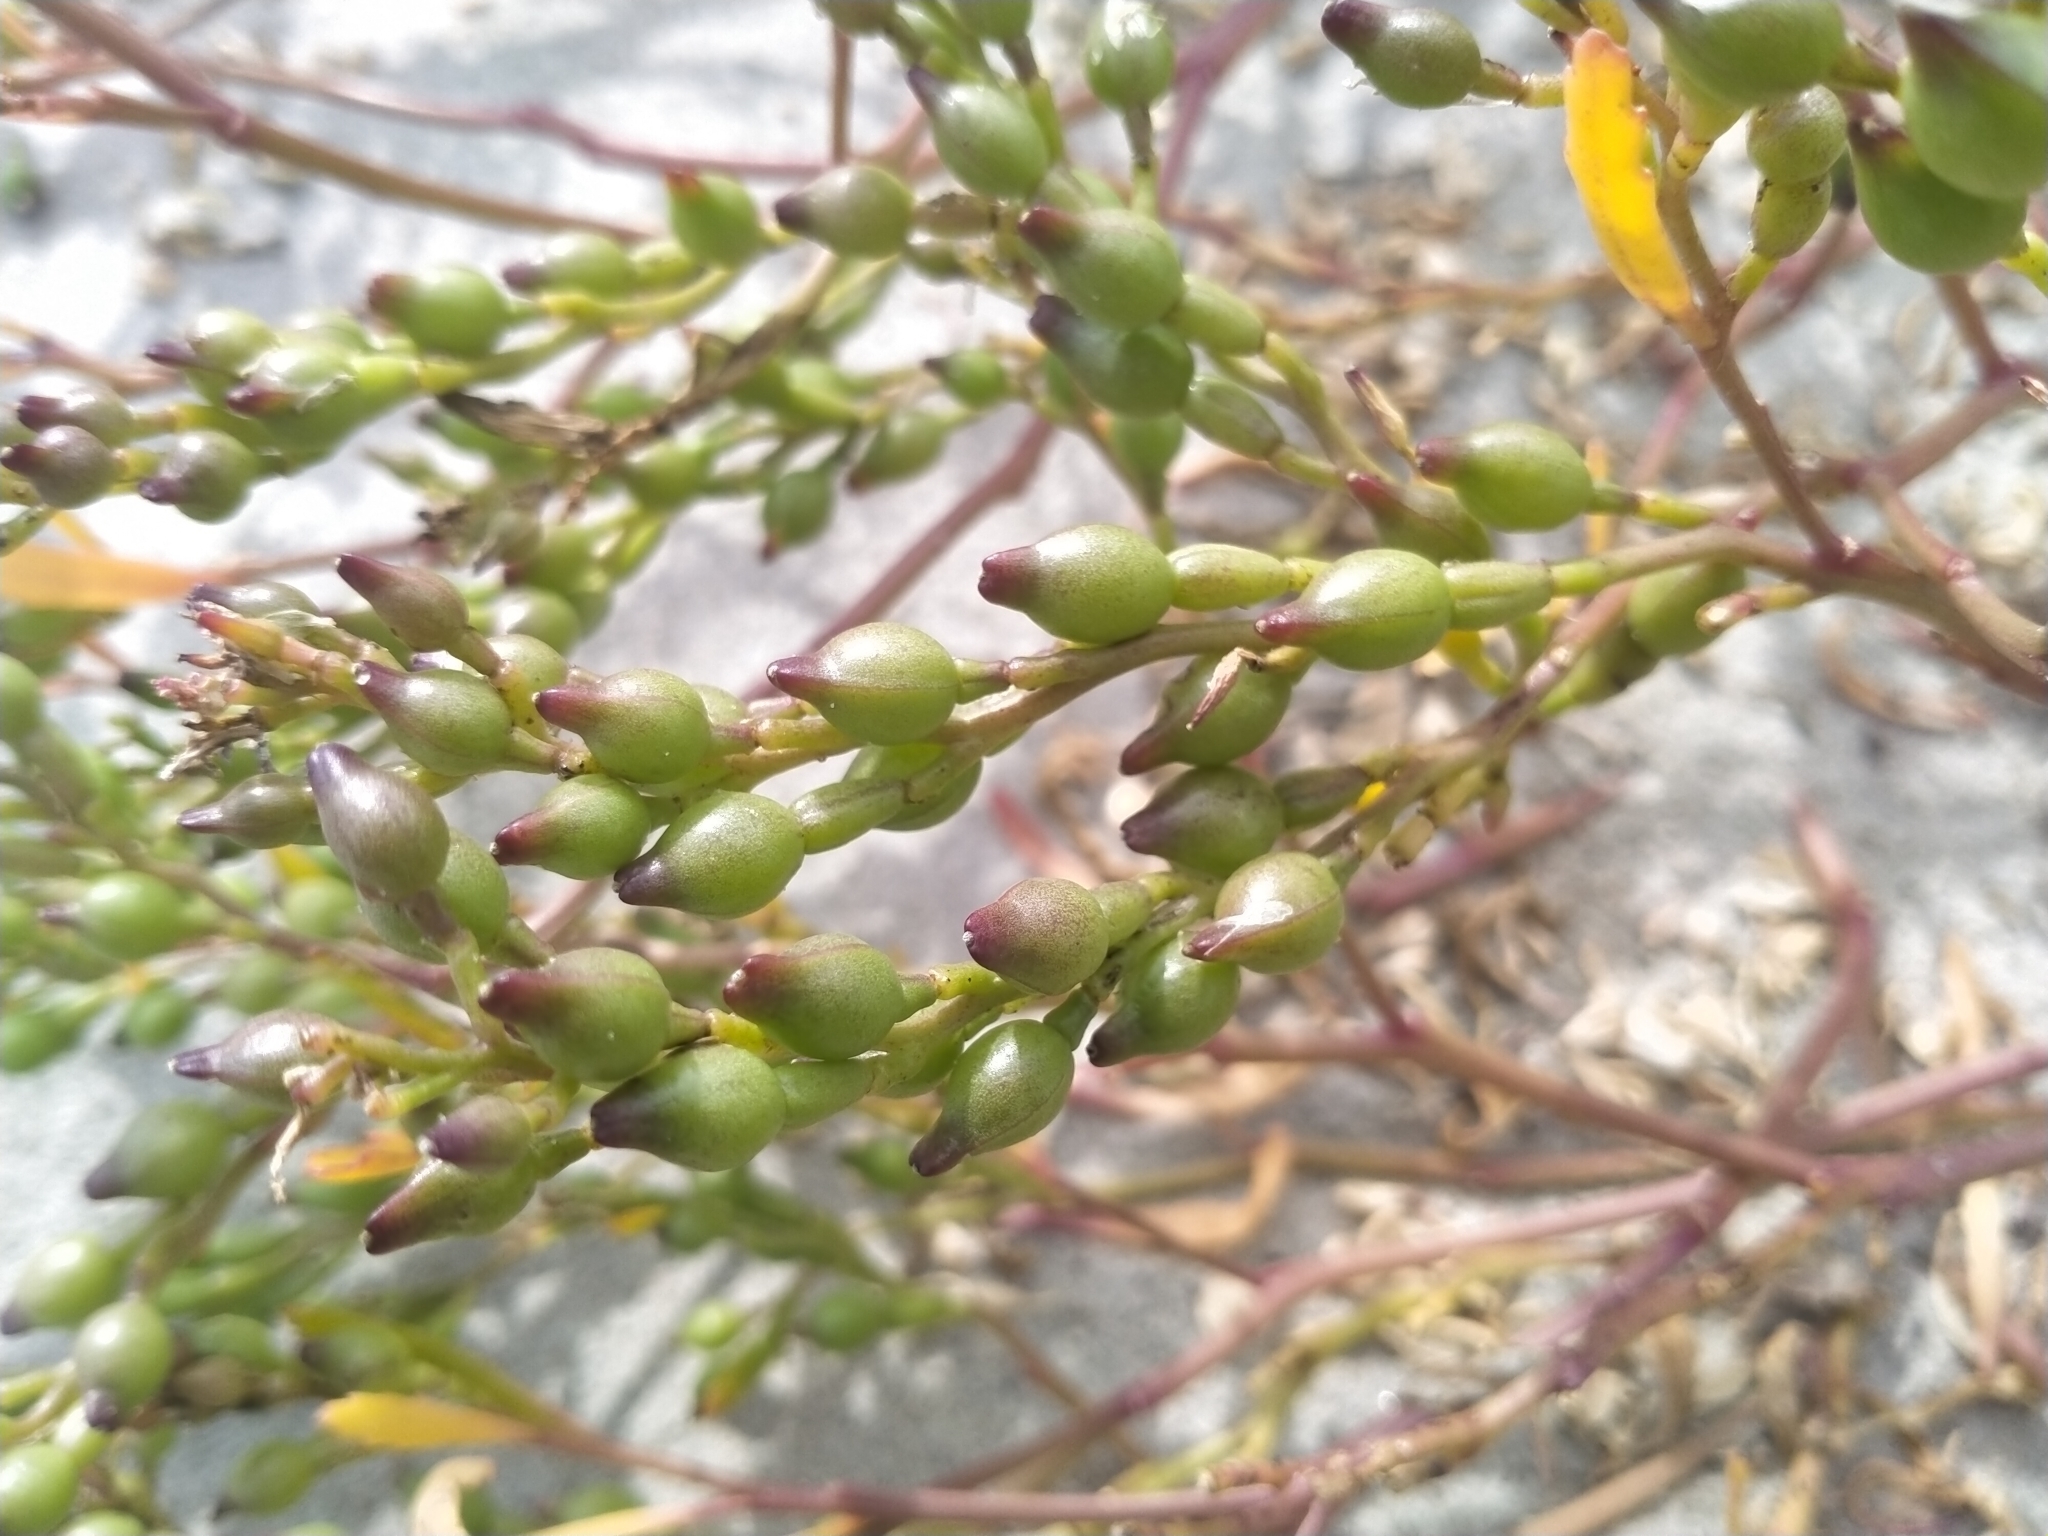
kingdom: Plantae
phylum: Tracheophyta
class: Magnoliopsida
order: Brassicales
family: Brassicaceae
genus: Cakile
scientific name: Cakile edentula
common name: American sea rocket
